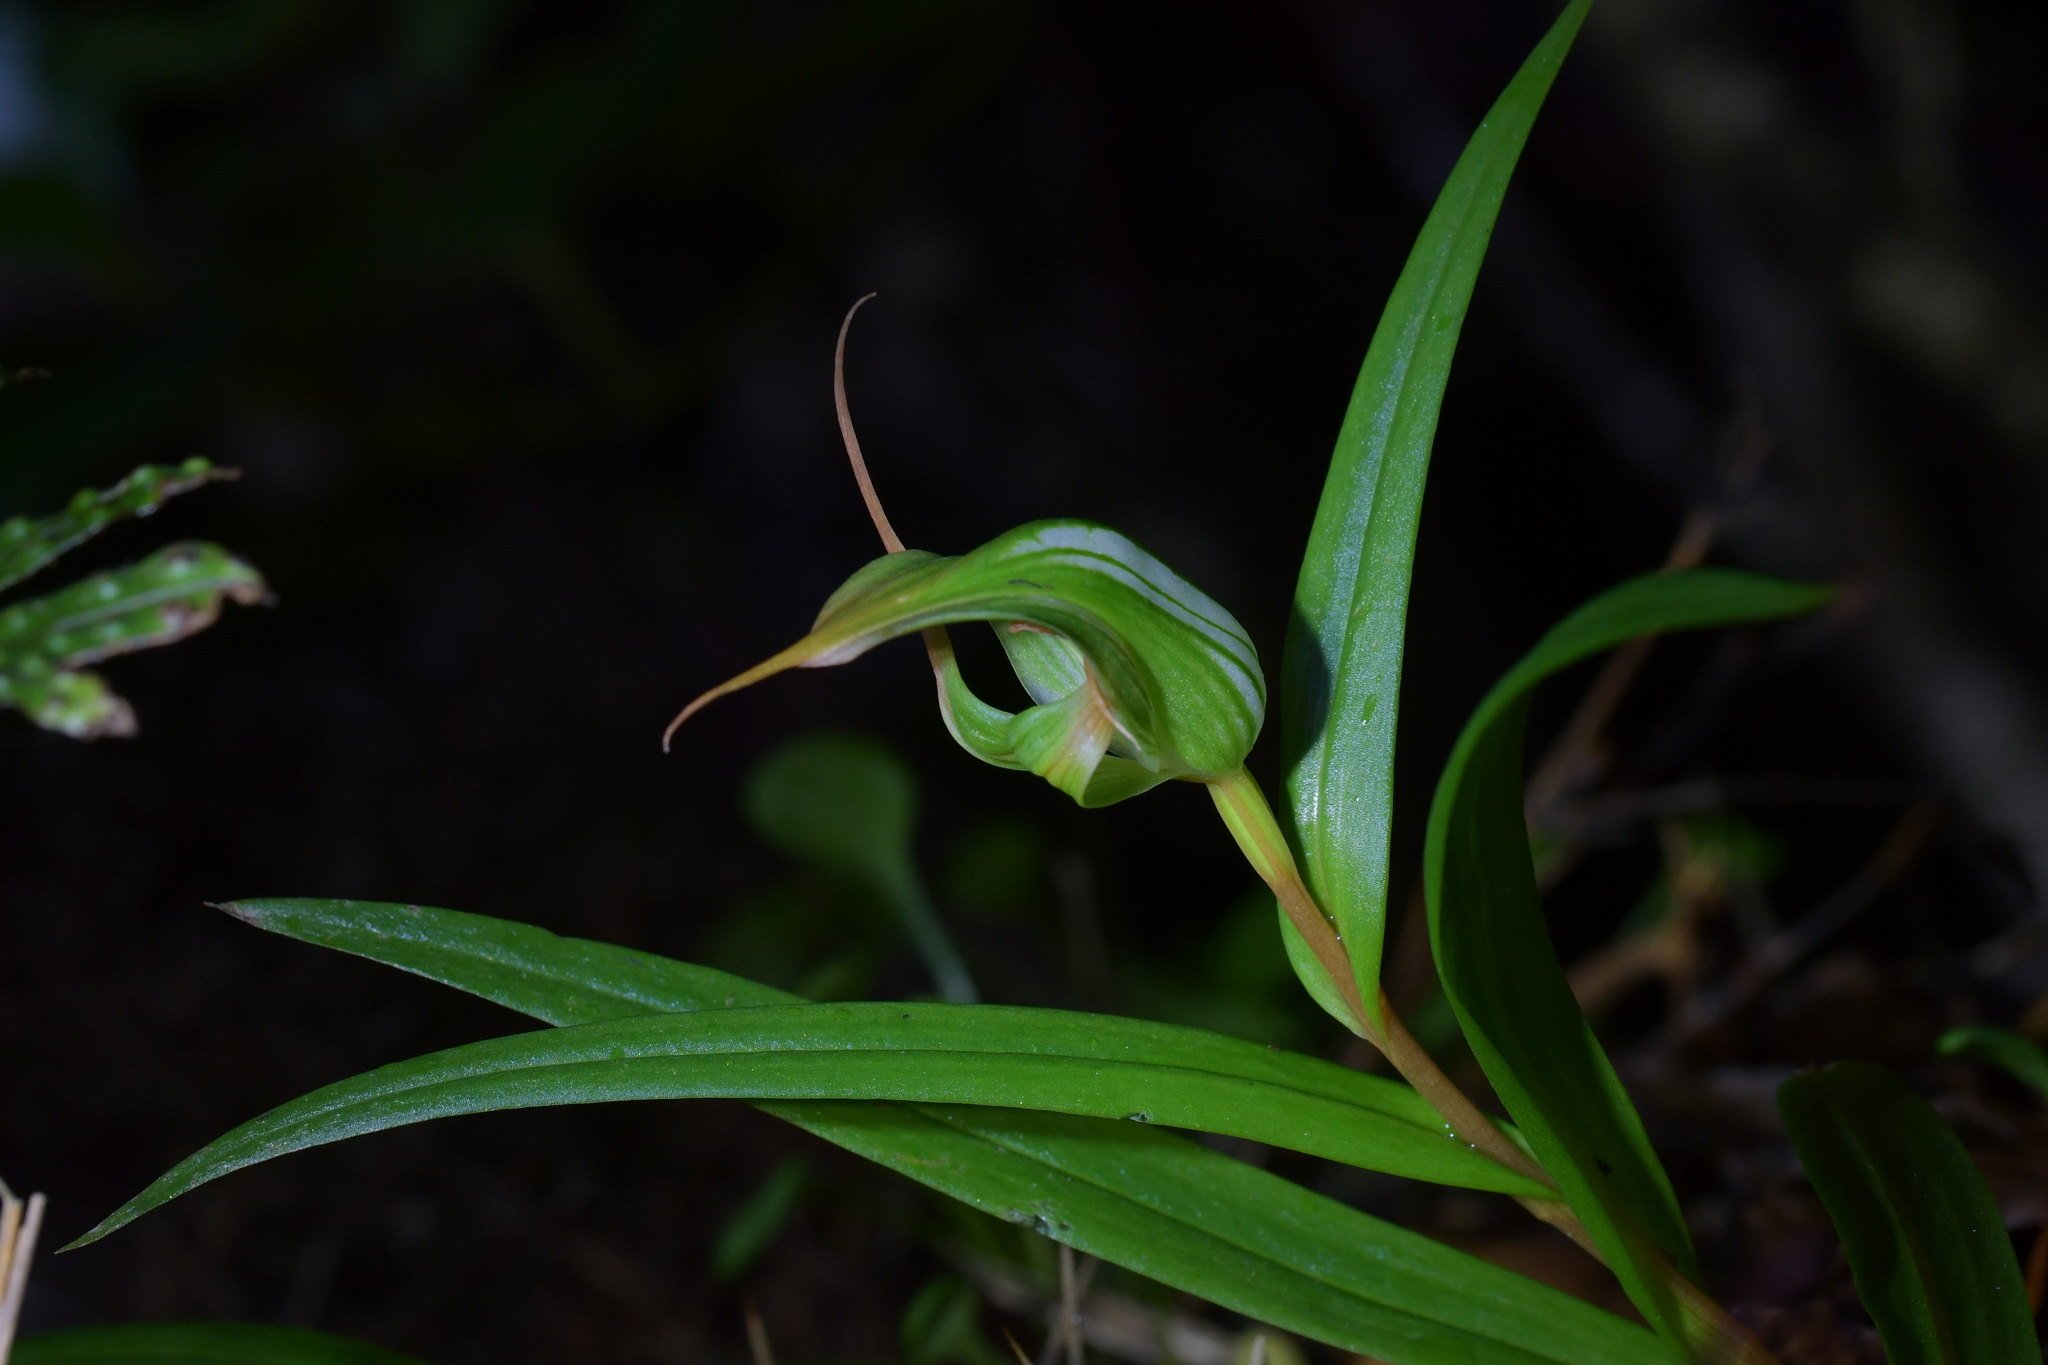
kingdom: Plantae
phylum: Tracheophyta
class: Liliopsida
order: Asparagales
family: Orchidaceae
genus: Pterostylis
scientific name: Pterostylis banksii
